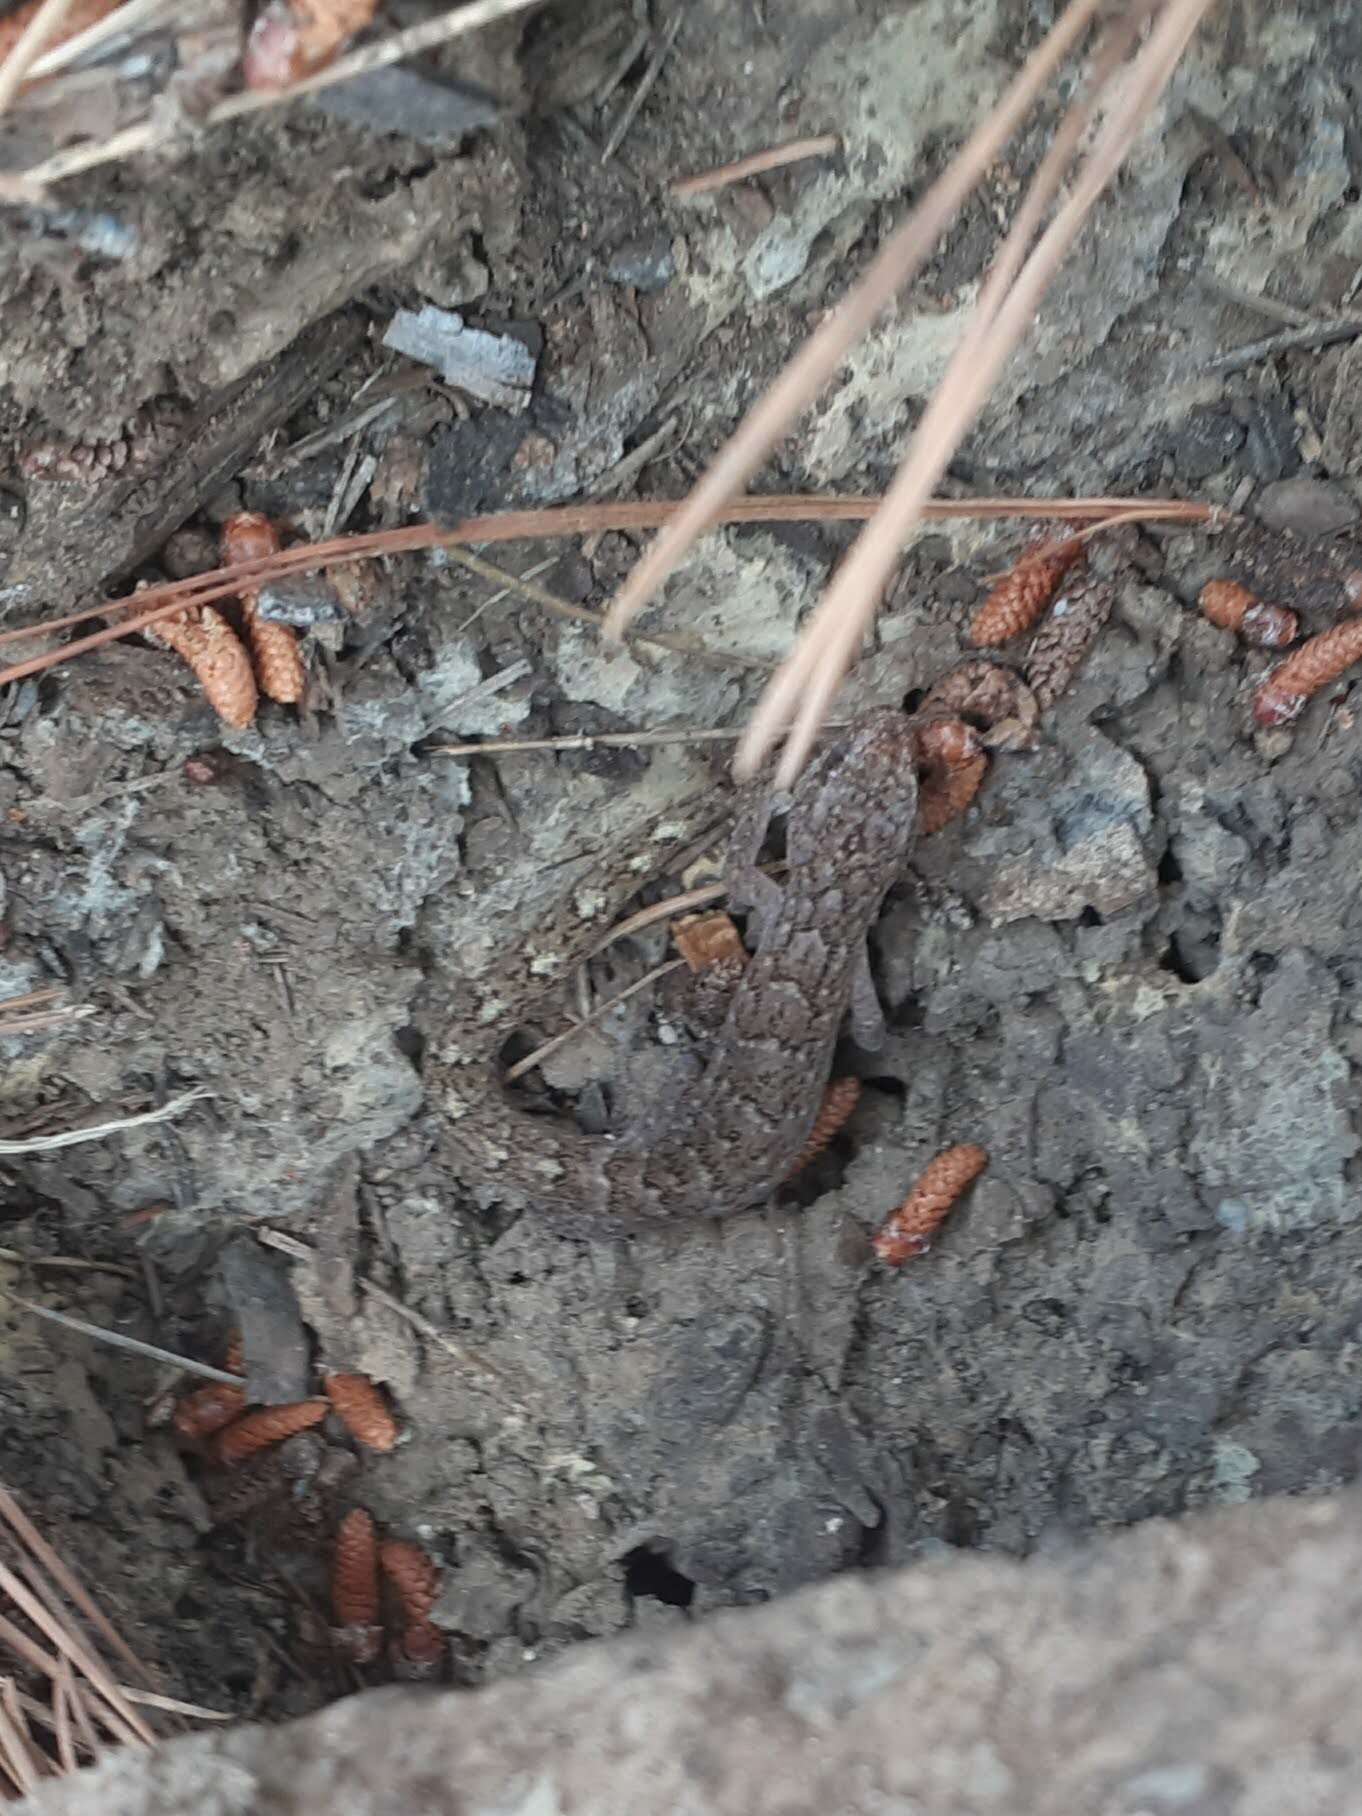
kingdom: Animalia
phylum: Chordata
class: Squamata
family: Gekkonidae
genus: Christinus
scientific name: Christinus marmoratus
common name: Marbled gecko
